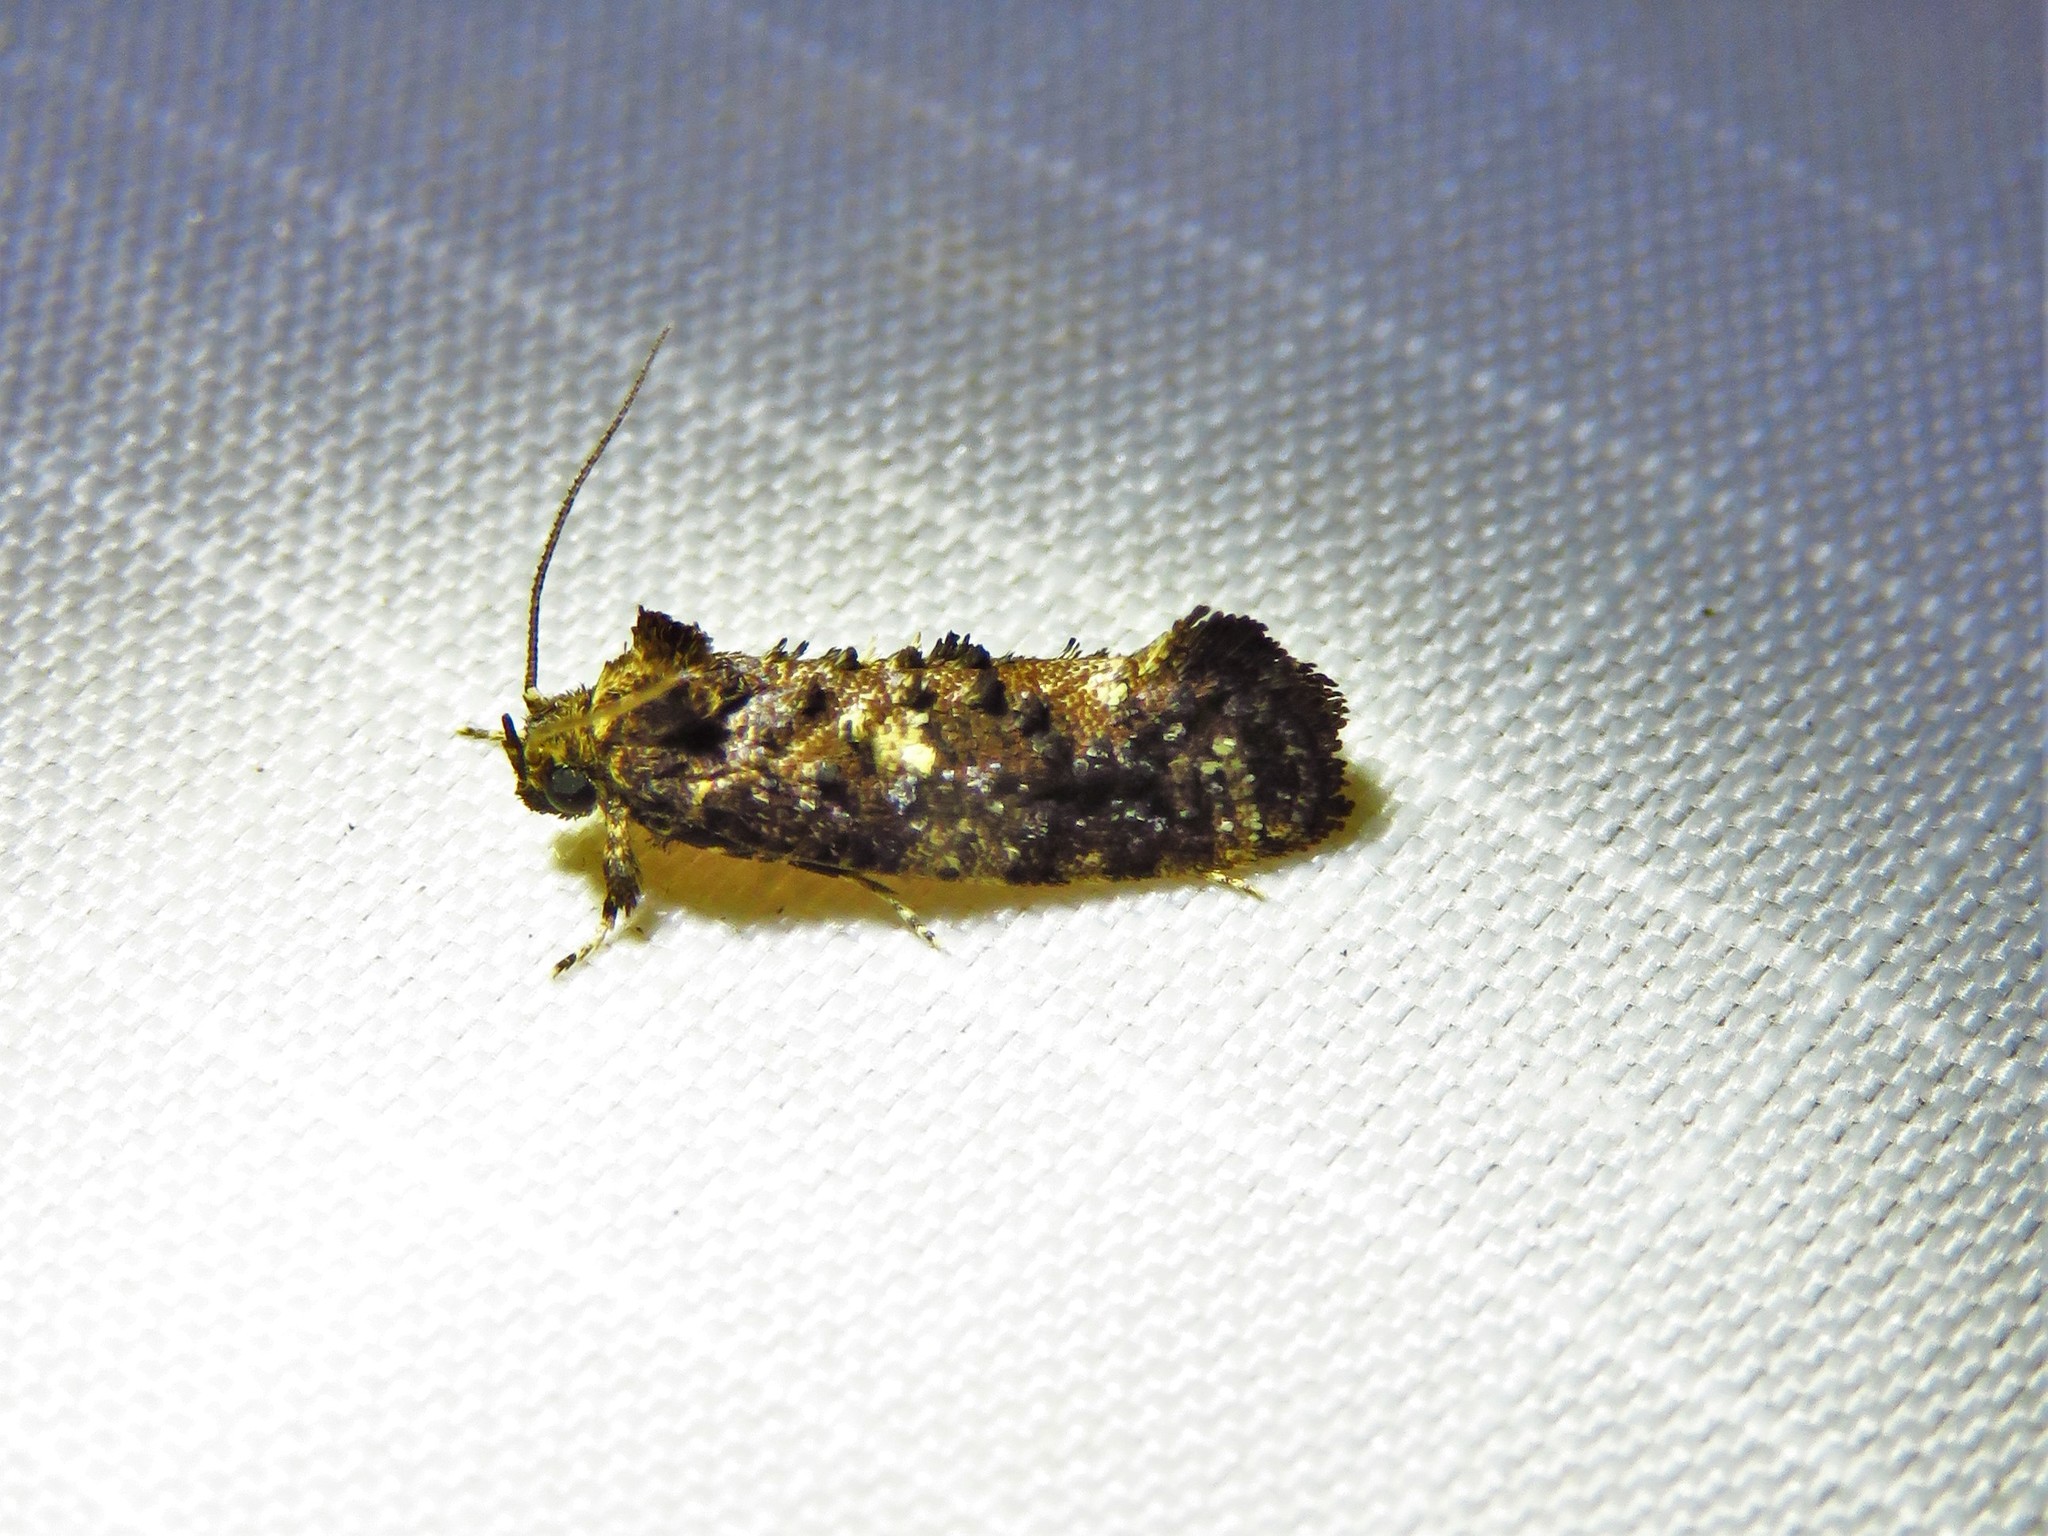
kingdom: Animalia
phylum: Arthropoda
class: Insecta
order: Lepidoptera
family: Tineidae
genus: Acrolophus
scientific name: Acrolophus cressoni
